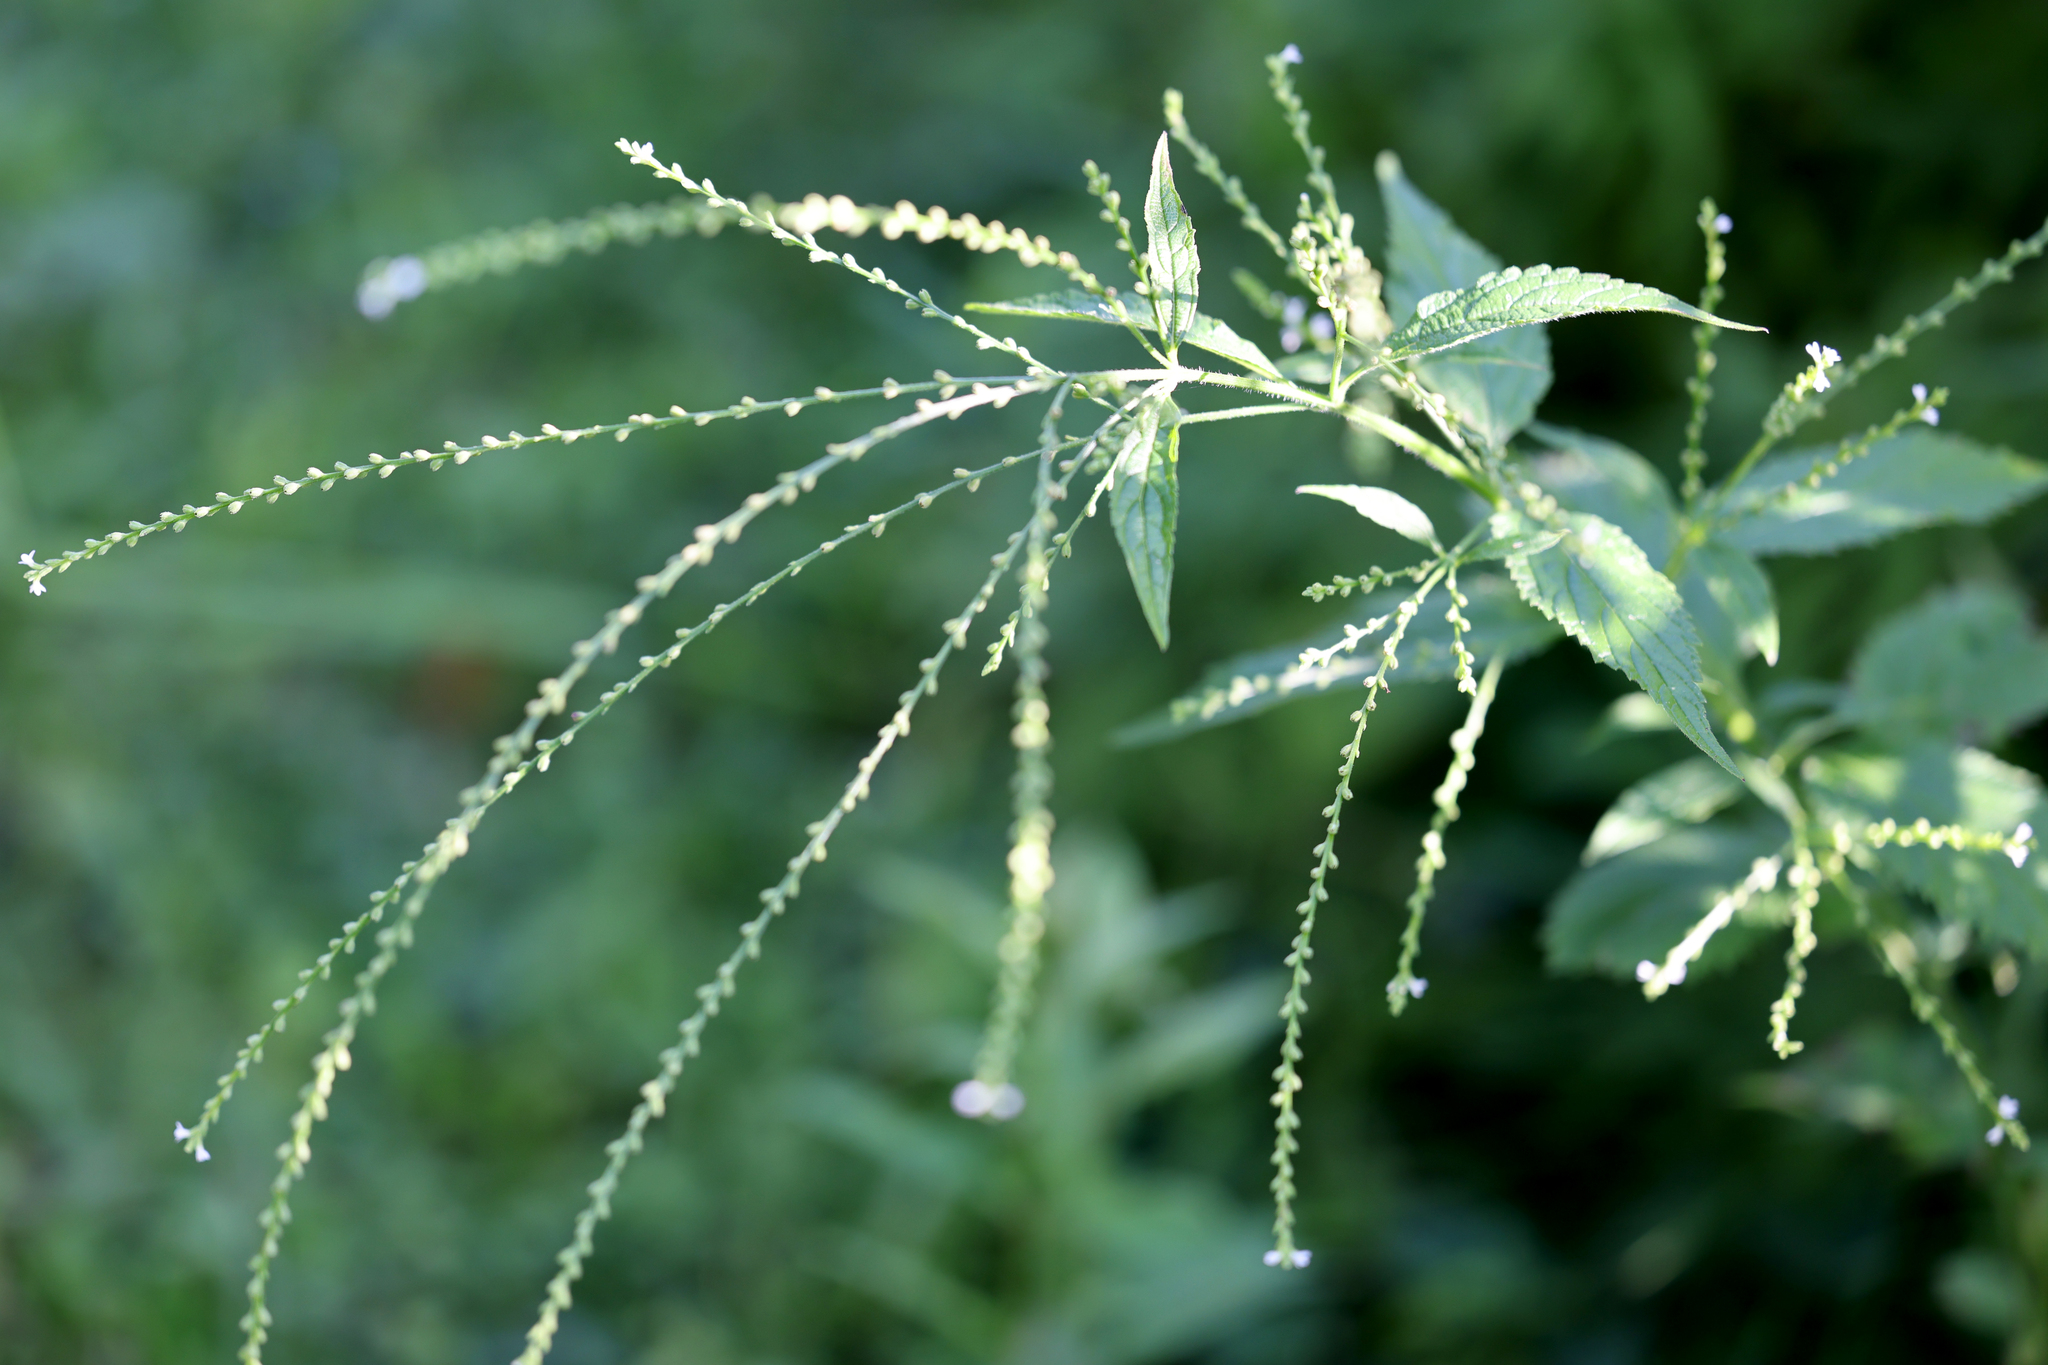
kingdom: Plantae
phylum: Tracheophyta
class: Magnoliopsida
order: Lamiales
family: Verbenaceae
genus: Verbena
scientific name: Verbena urticifolia
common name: Nettle-leaved vervain
